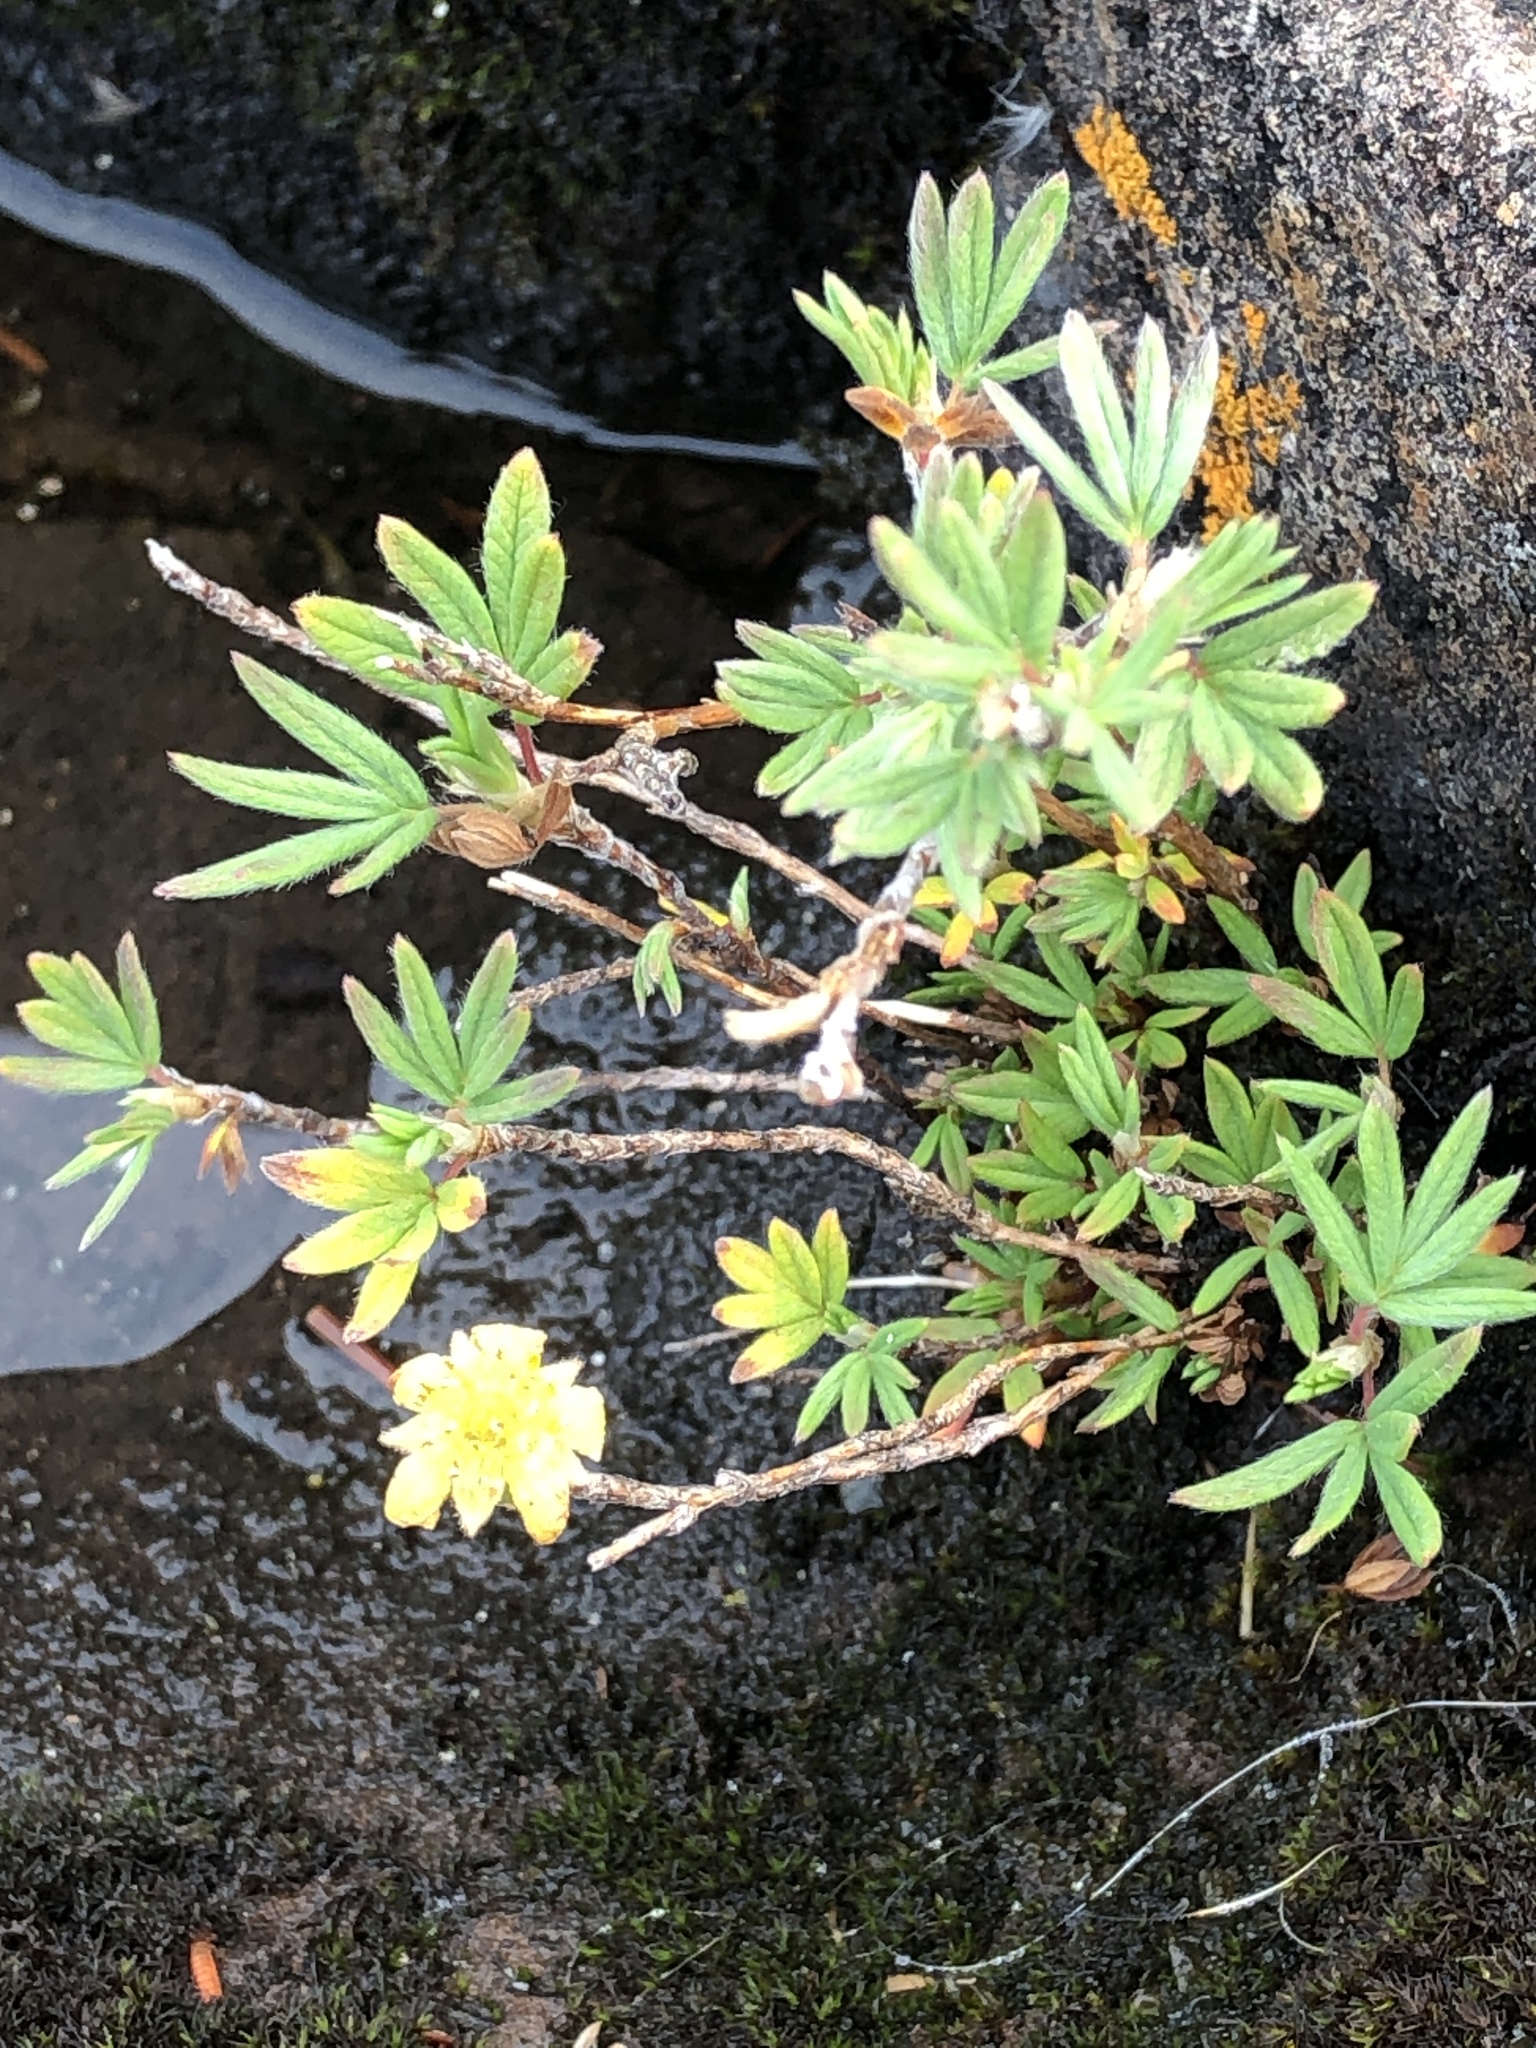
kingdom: Plantae
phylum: Tracheophyta
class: Magnoliopsida
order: Rosales
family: Rosaceae
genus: Dasiphora
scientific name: Dasiphora fruticosa
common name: Shrubby cinquefoil
